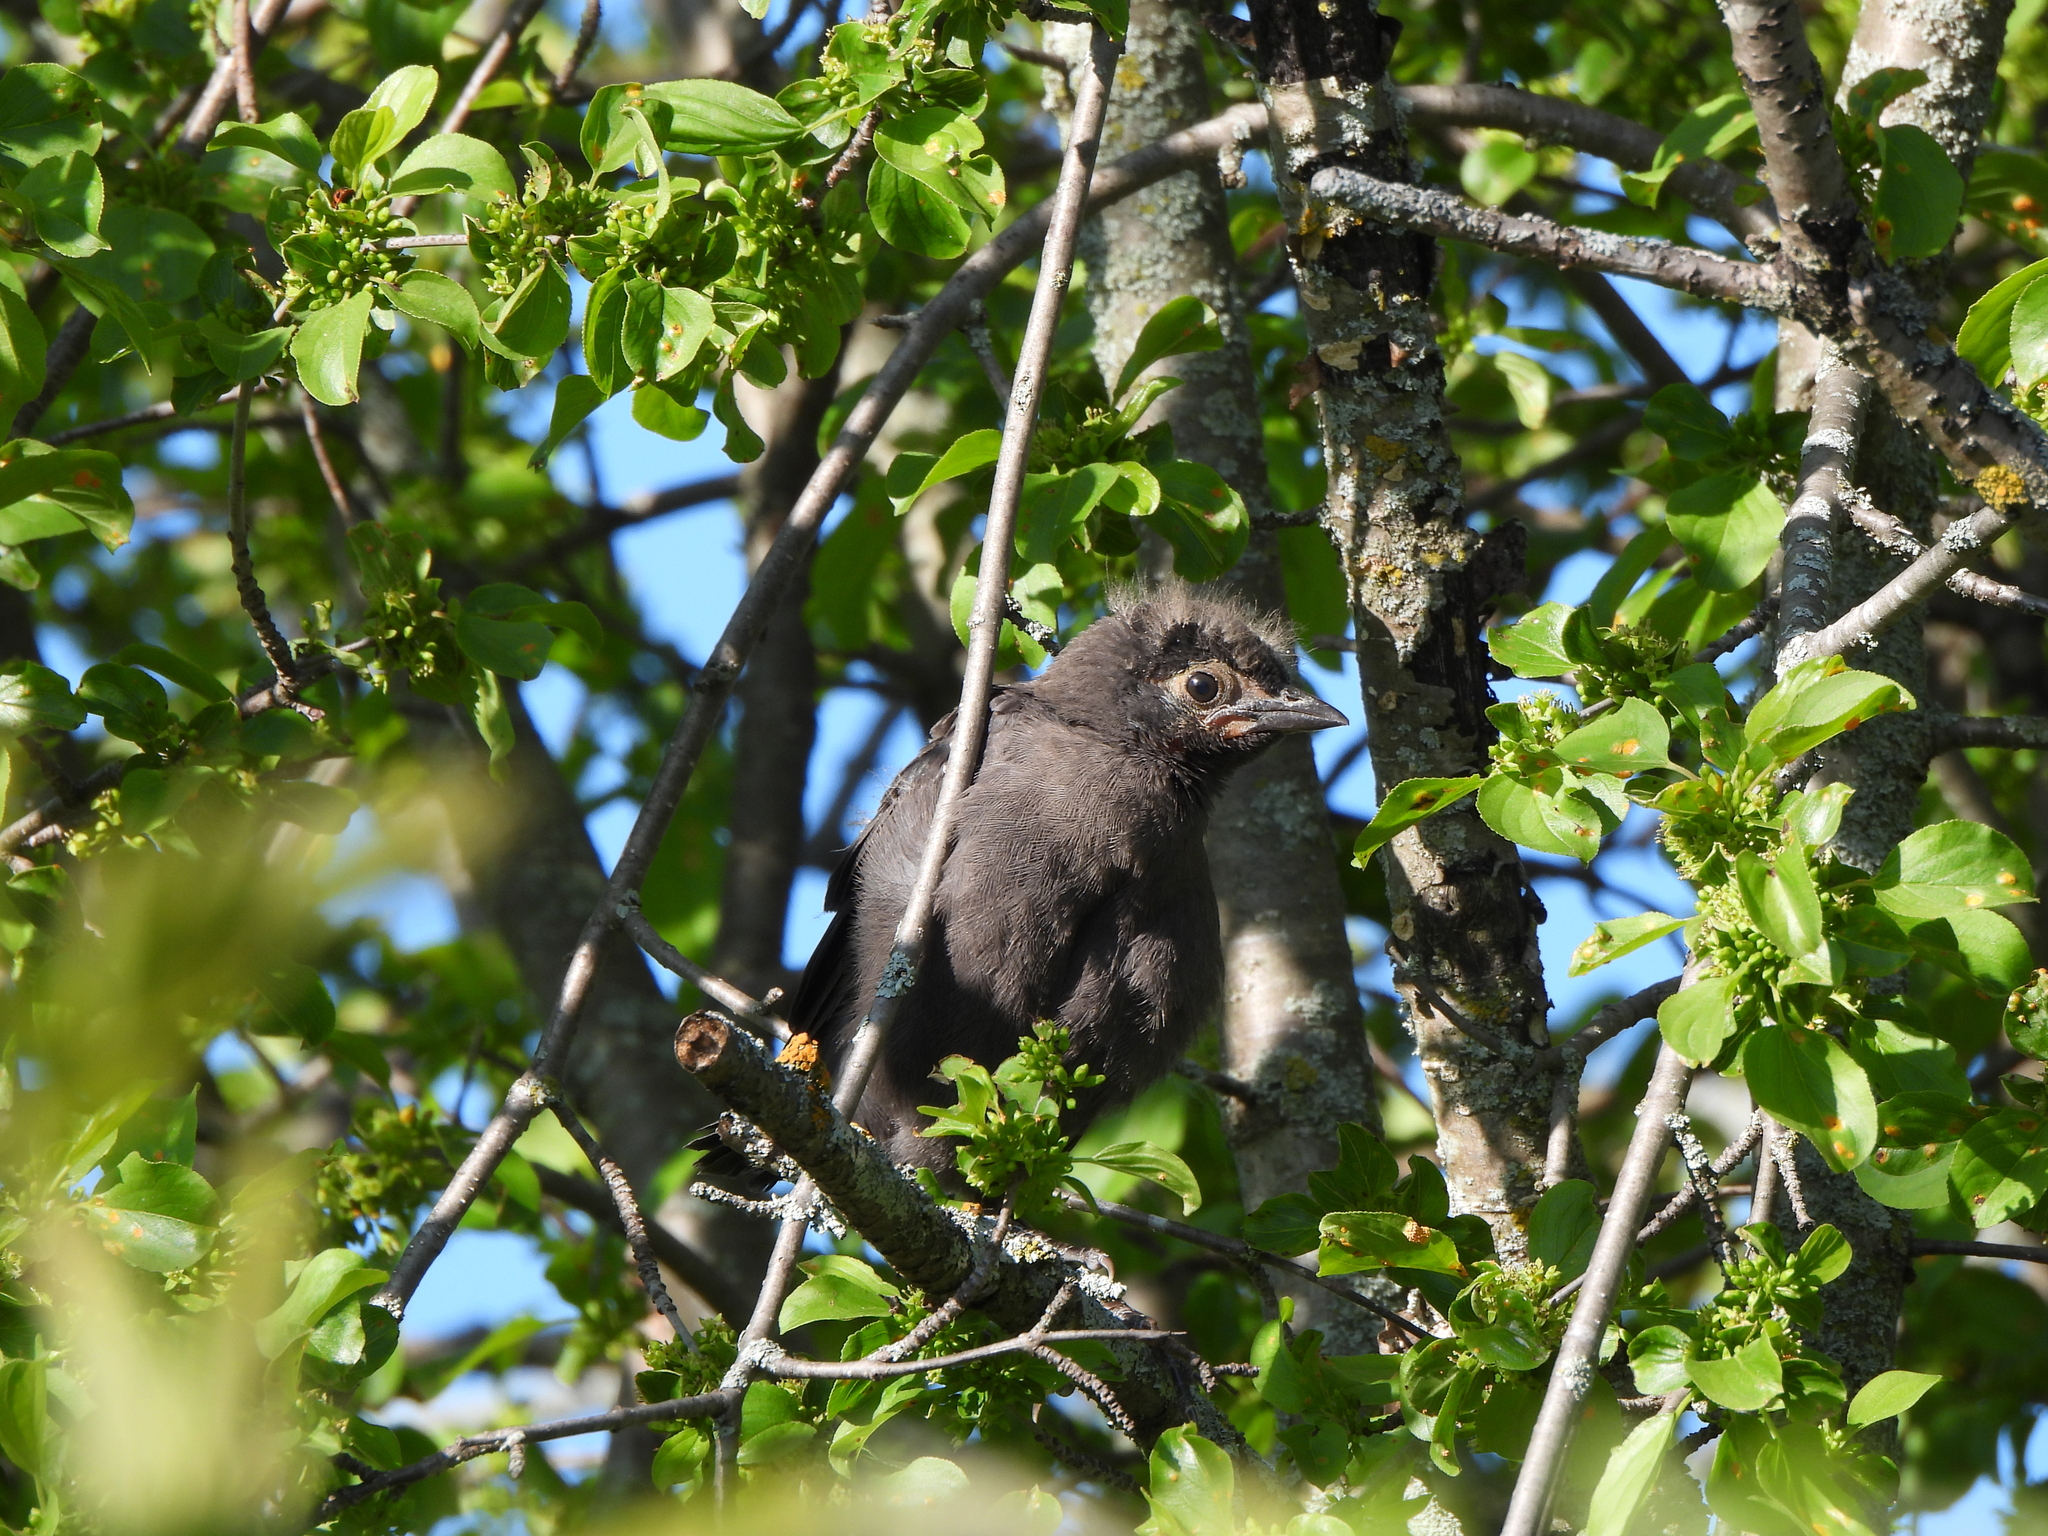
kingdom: Animalia
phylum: Chordata
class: Aves
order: Passeriformes
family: Icteridae
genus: Quiscalus
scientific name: Quiscalus quiscula
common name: Common grackle
